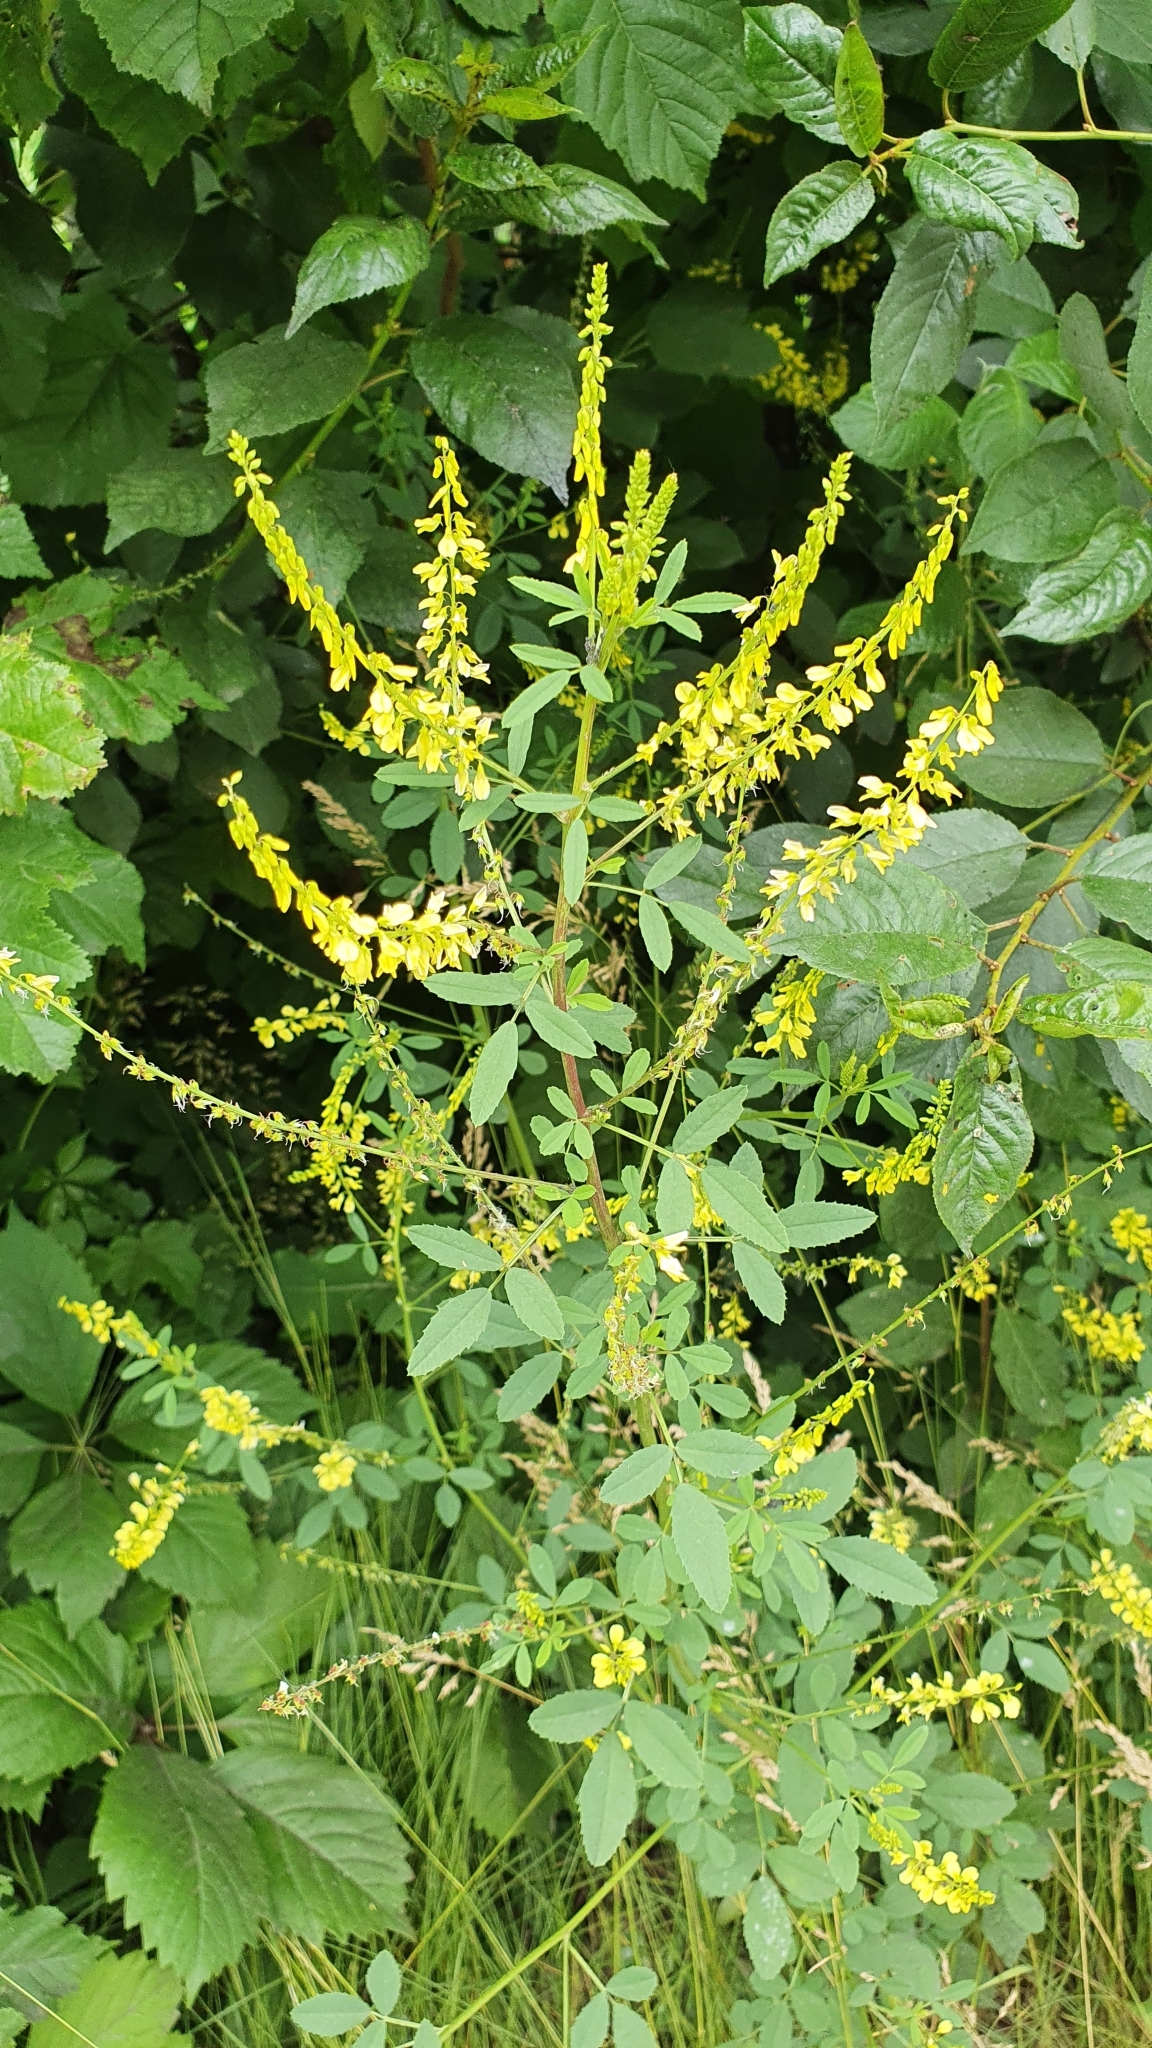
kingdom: Plantae
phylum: Tracheophyta
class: Magnoliopsida
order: Fabales
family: Fabaceae
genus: Melilotus
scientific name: Melilotus officinalis
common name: Sweetclover
